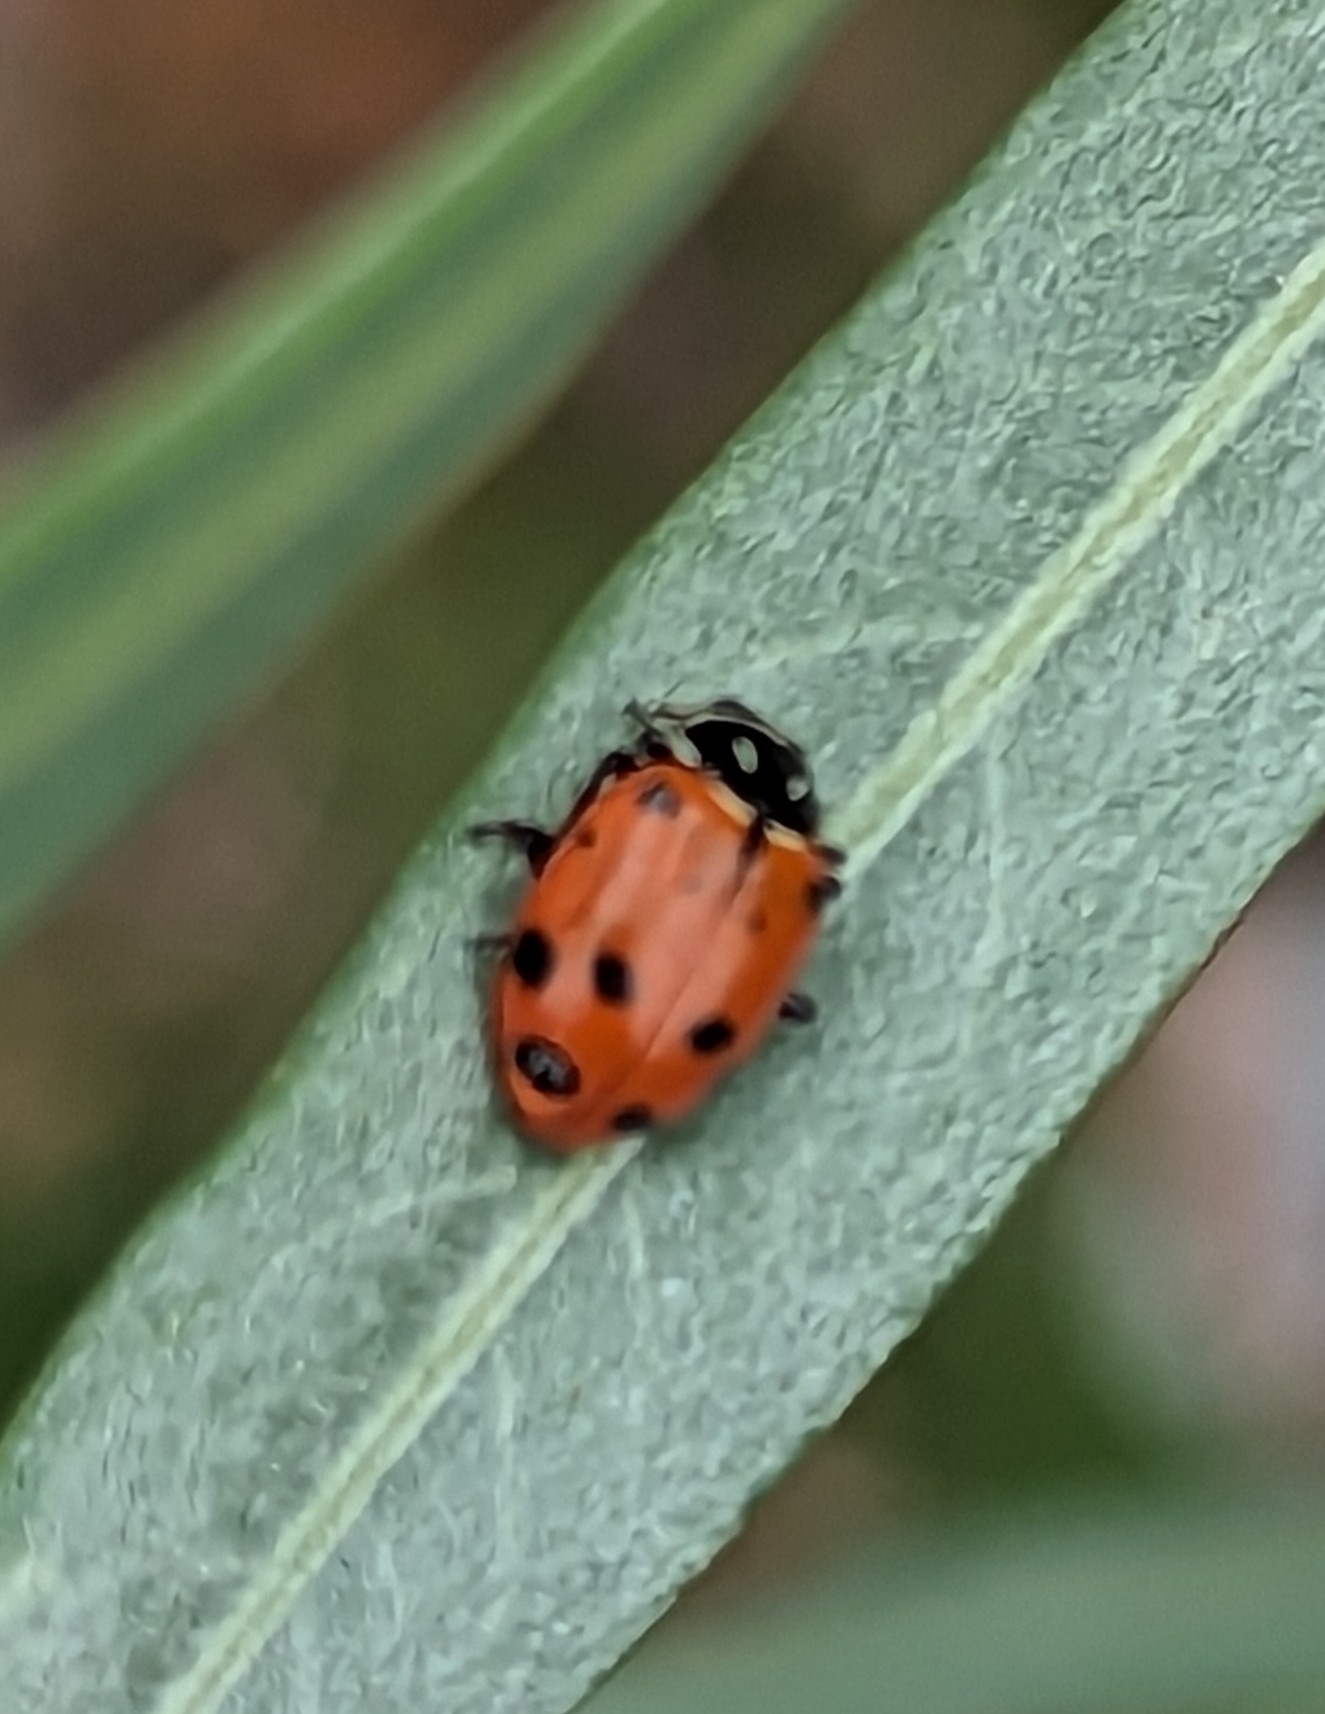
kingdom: Animalia
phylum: Arthropoda
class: Insecta
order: Coleoptera
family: Coccinellidae
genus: Hippodamia
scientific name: Hippodamia convergens
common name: Convergent lady beetle
